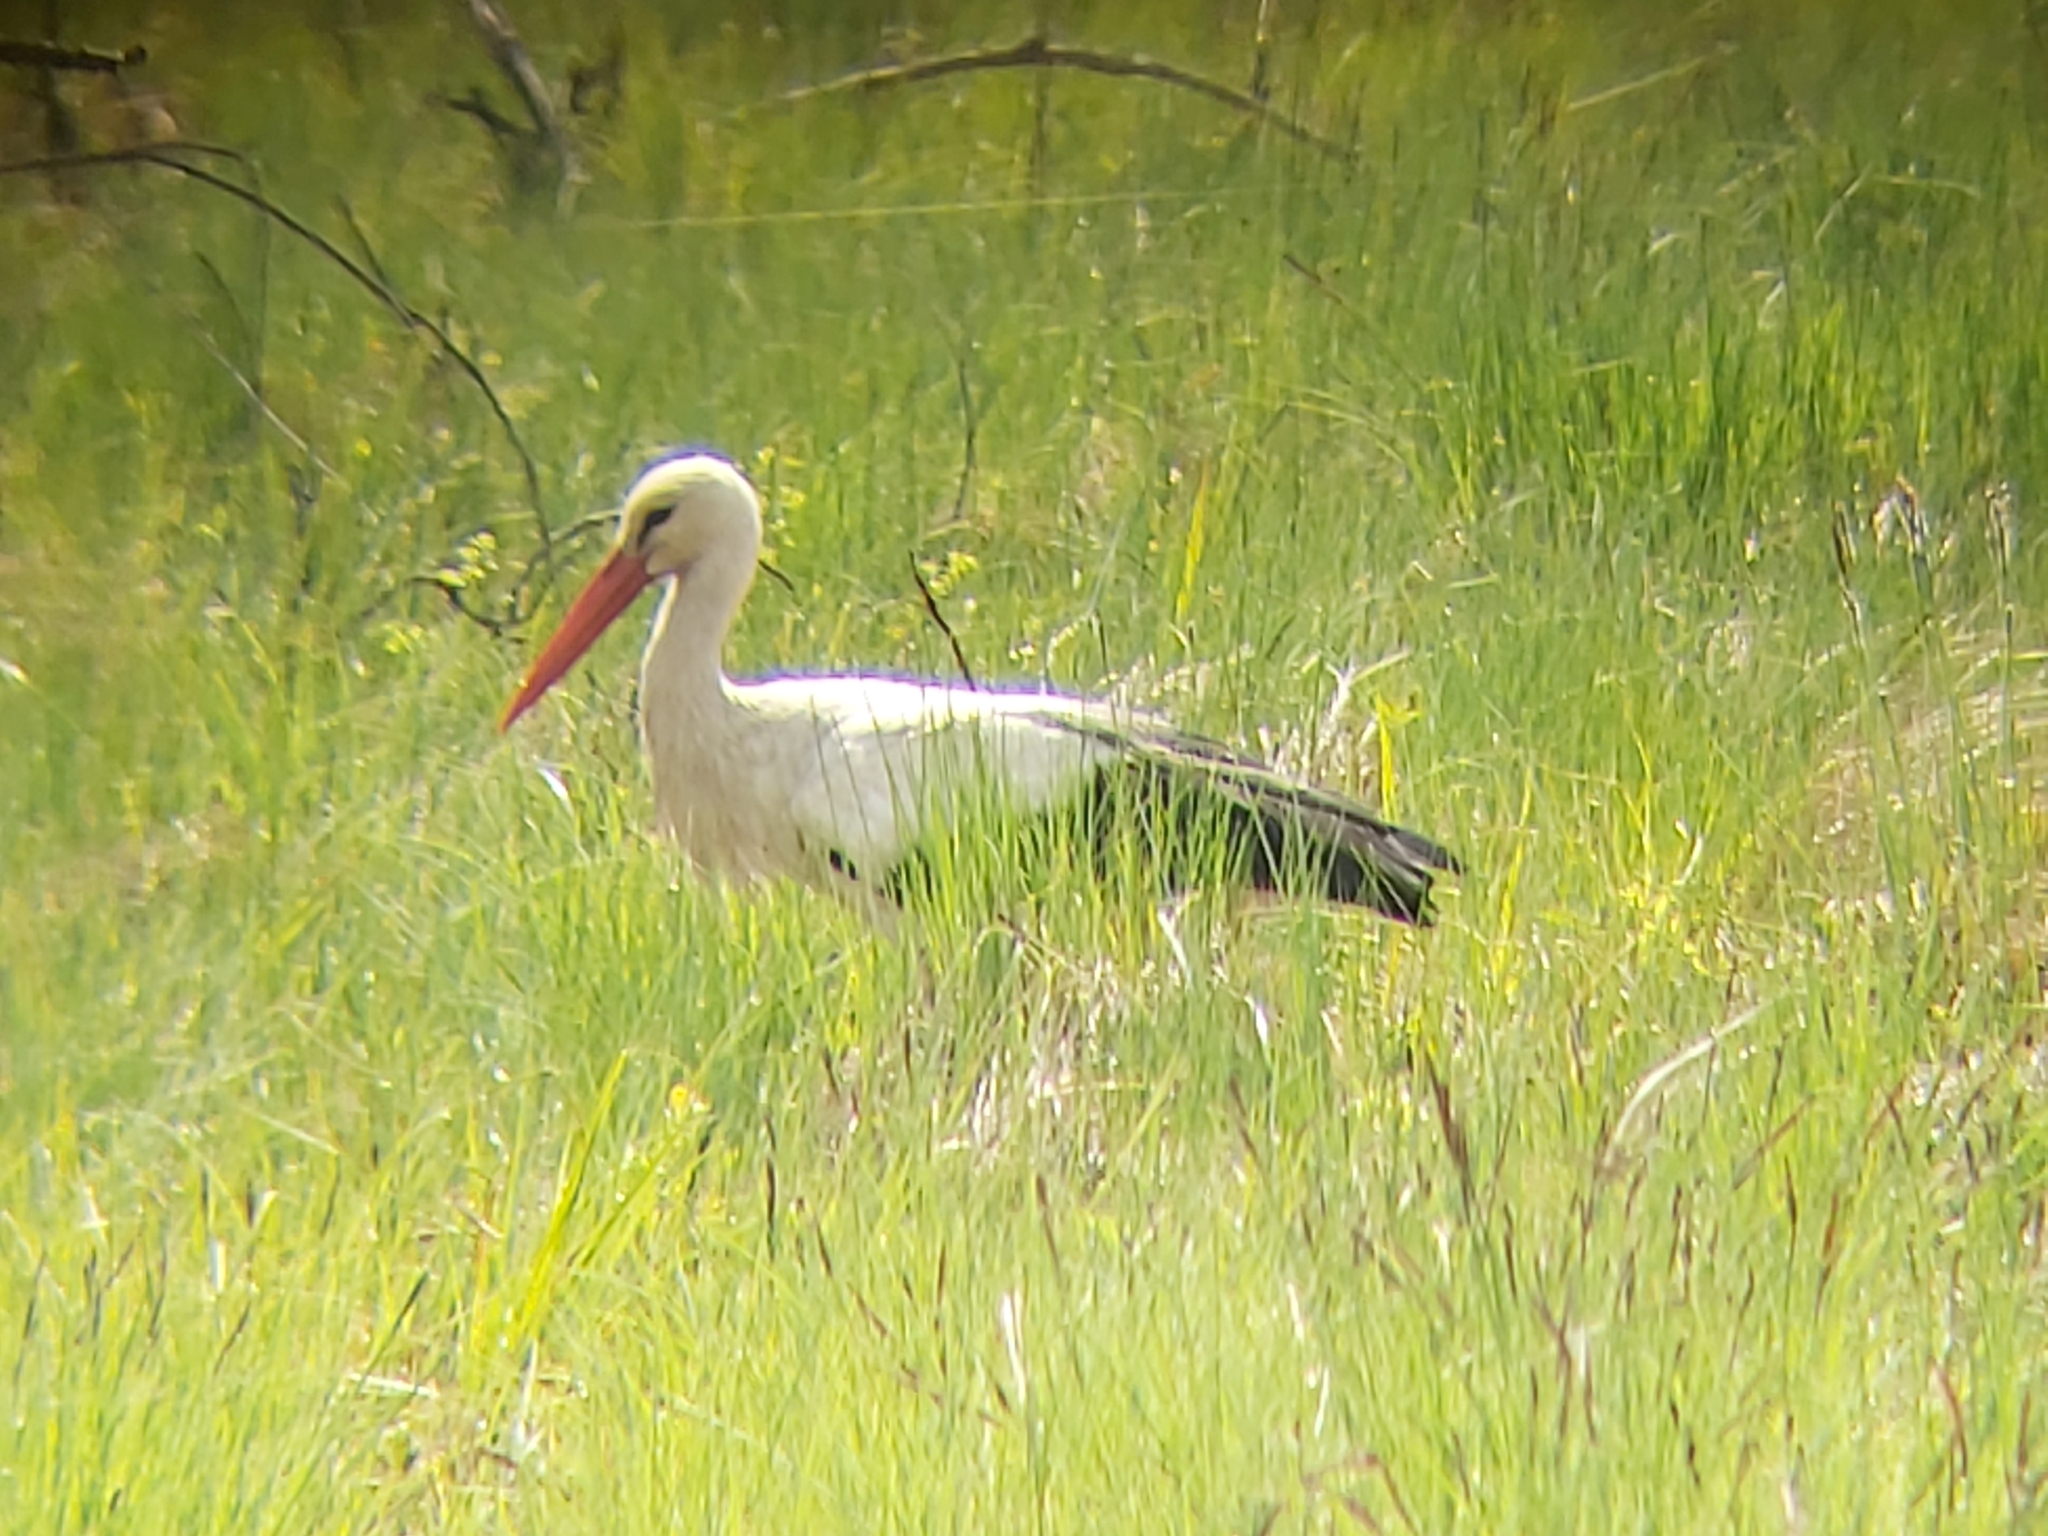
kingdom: Animalia
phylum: Chordata
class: Aves
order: Ciconiiformes
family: Ciconiidae
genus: Ciconia
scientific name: Ciconia ciconia
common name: White stork
